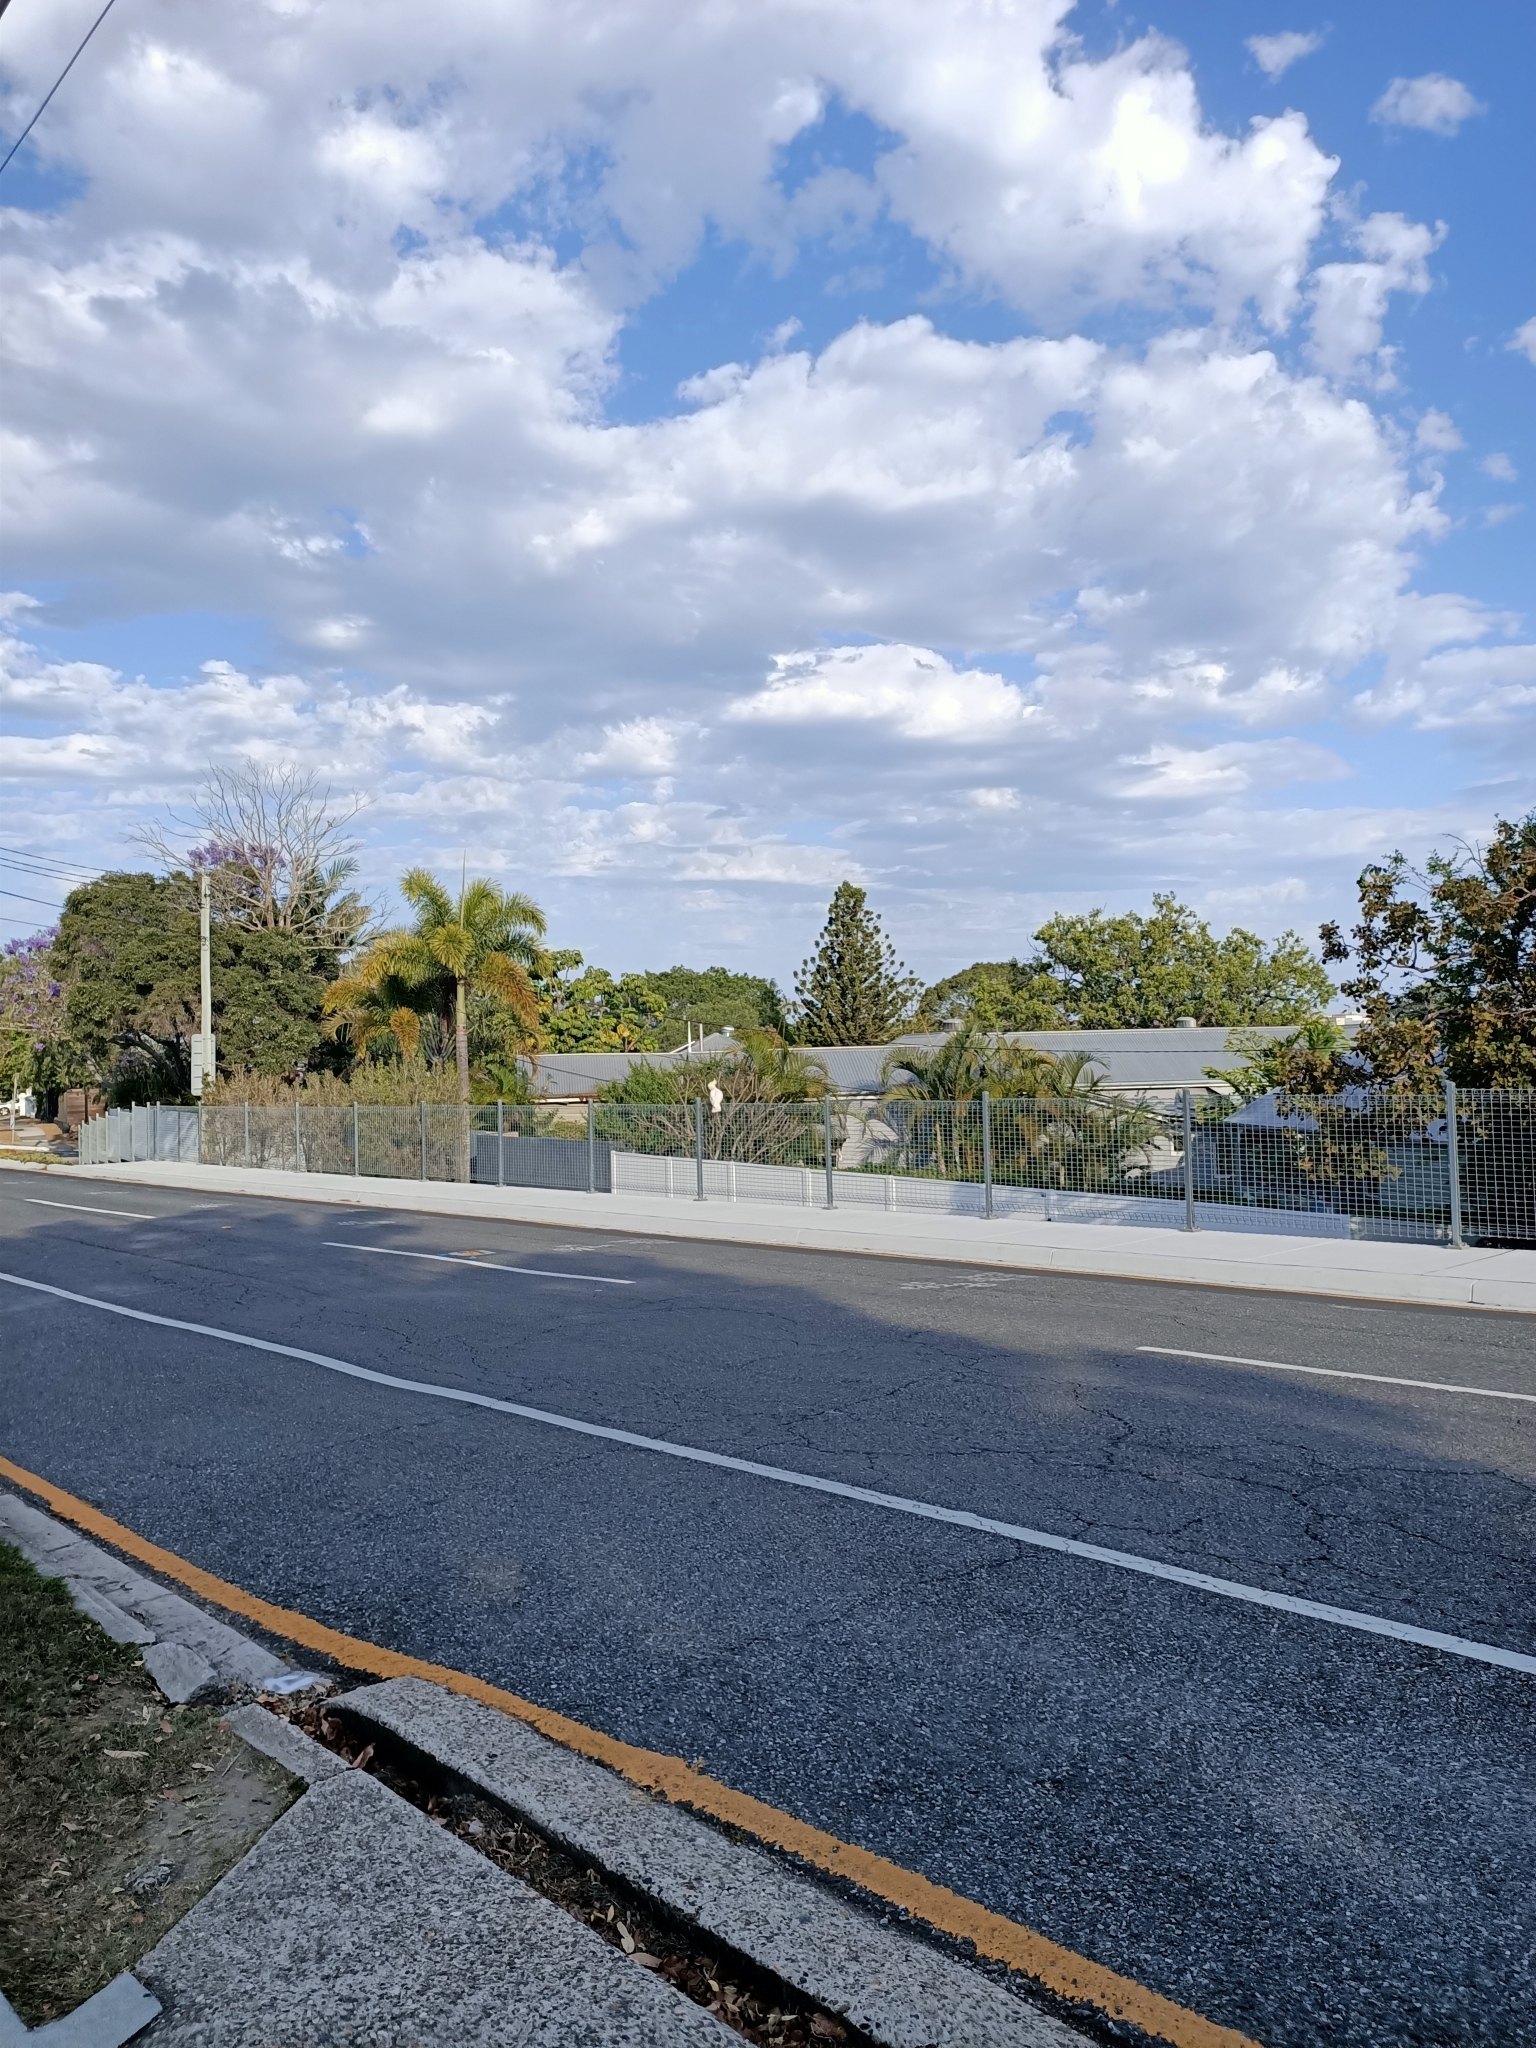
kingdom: Animalia
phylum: Chordata
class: Aves
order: Psittaciformes
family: Psittacidae
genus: Cacatua
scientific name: Cacatua galerita
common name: Sulphur-crested cockatoo
